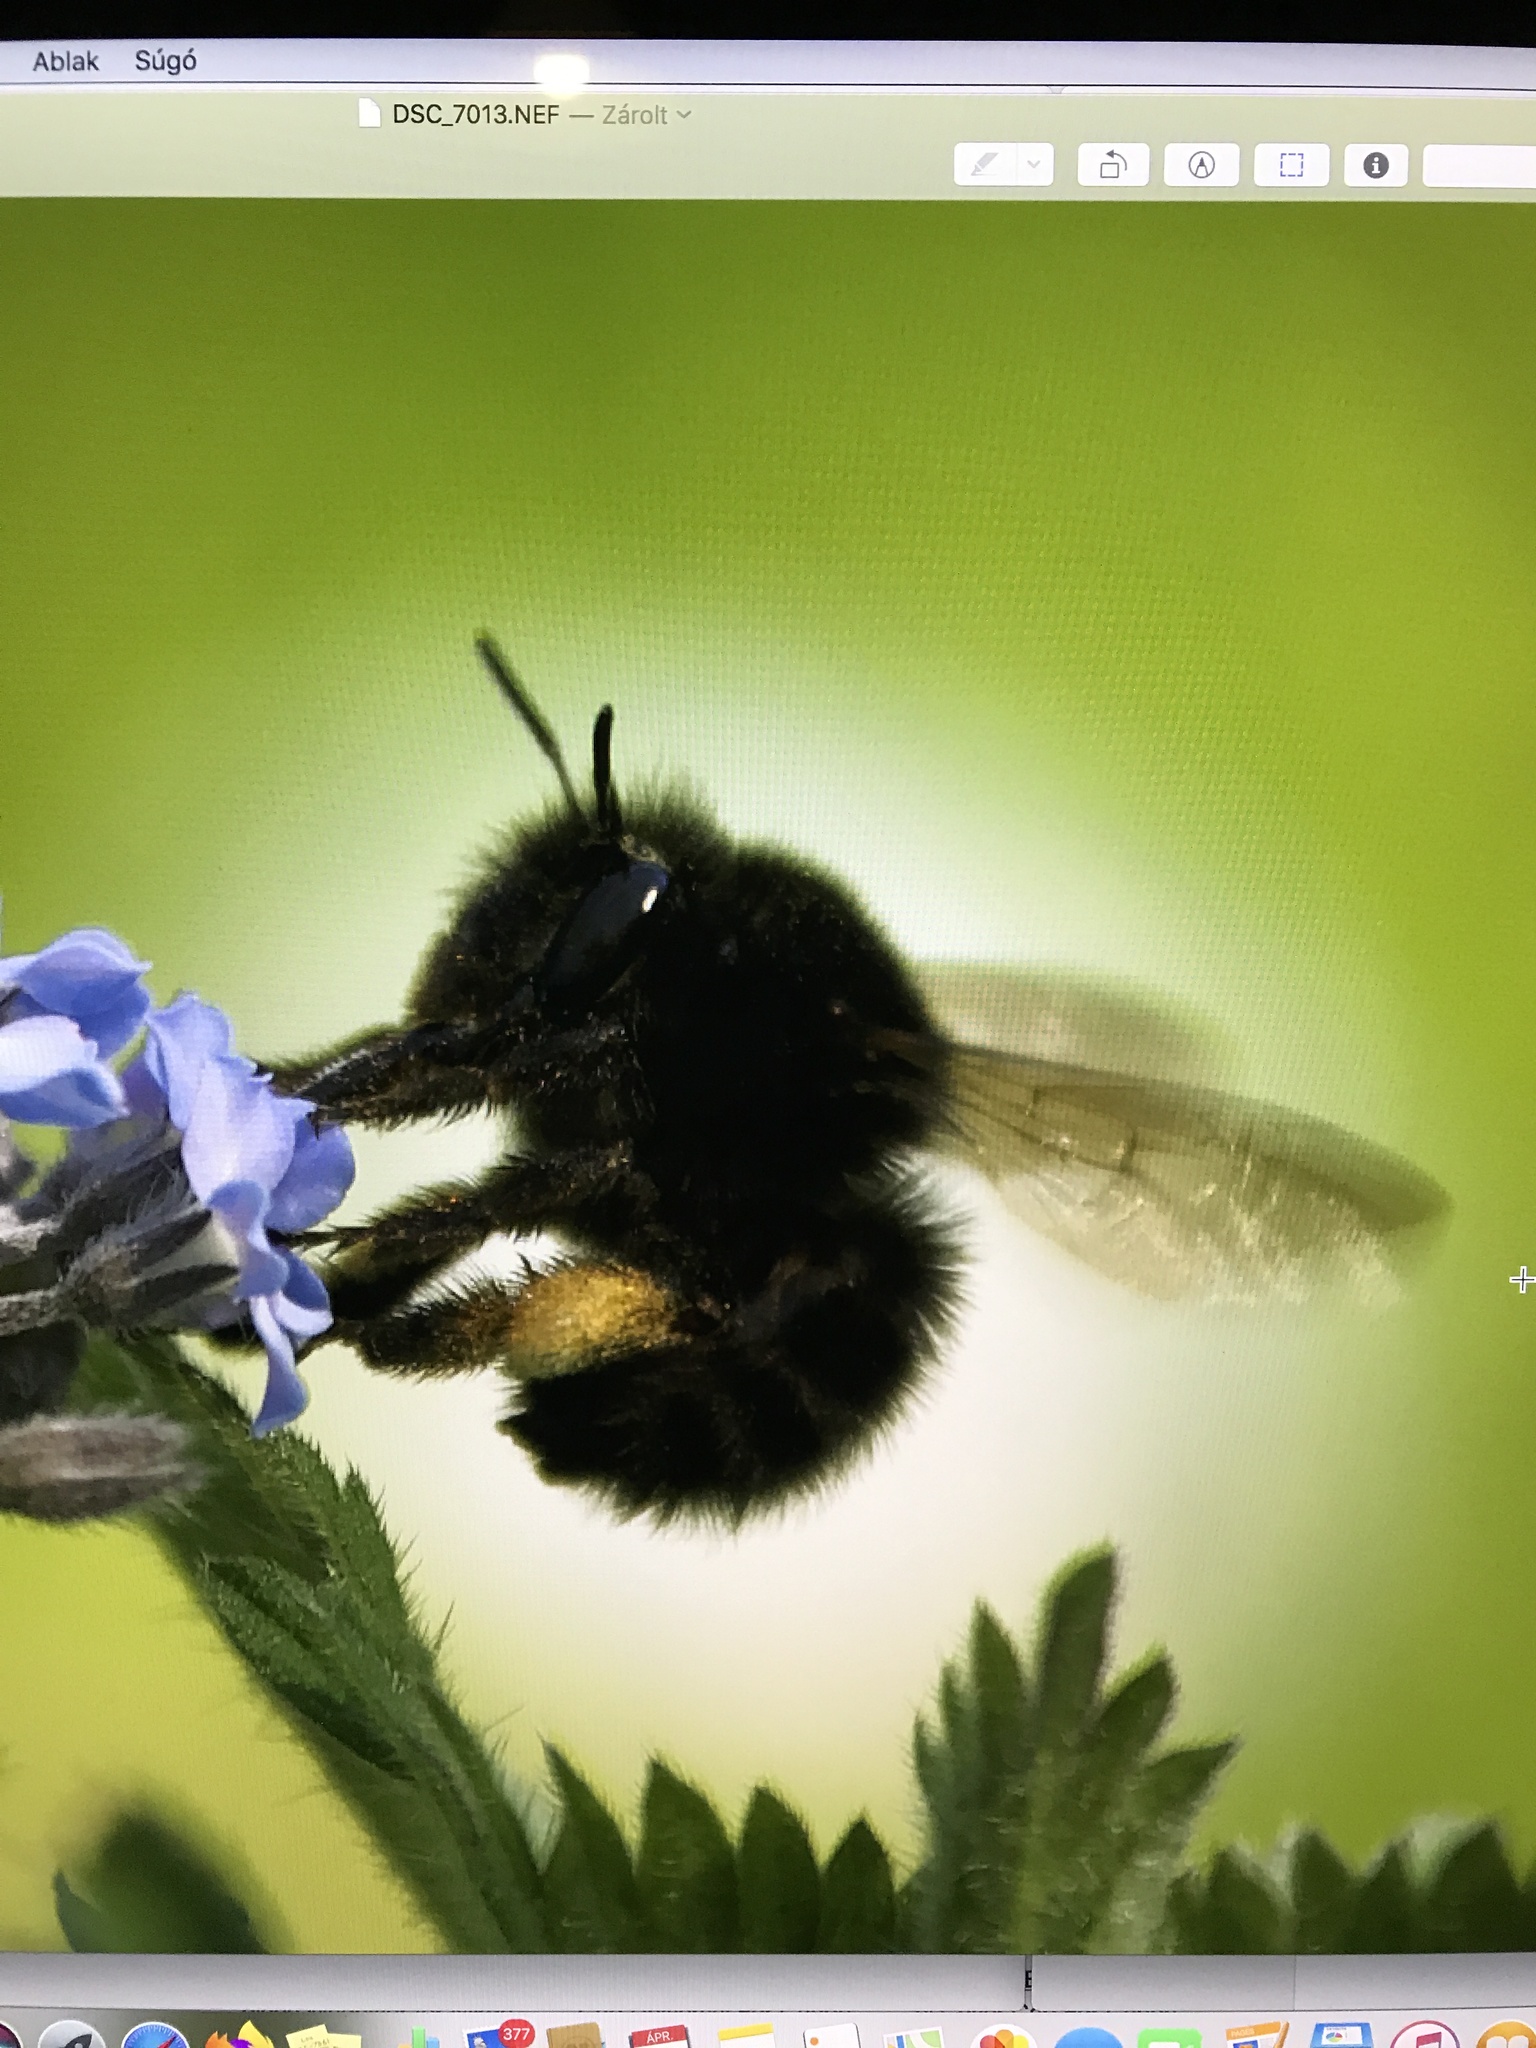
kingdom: Animalia
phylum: Arthropoda
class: Insecta
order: Hymenoptera
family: Apidae
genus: Anthophora
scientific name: Anthophora plumipes
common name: Hairy-footed flower bee
